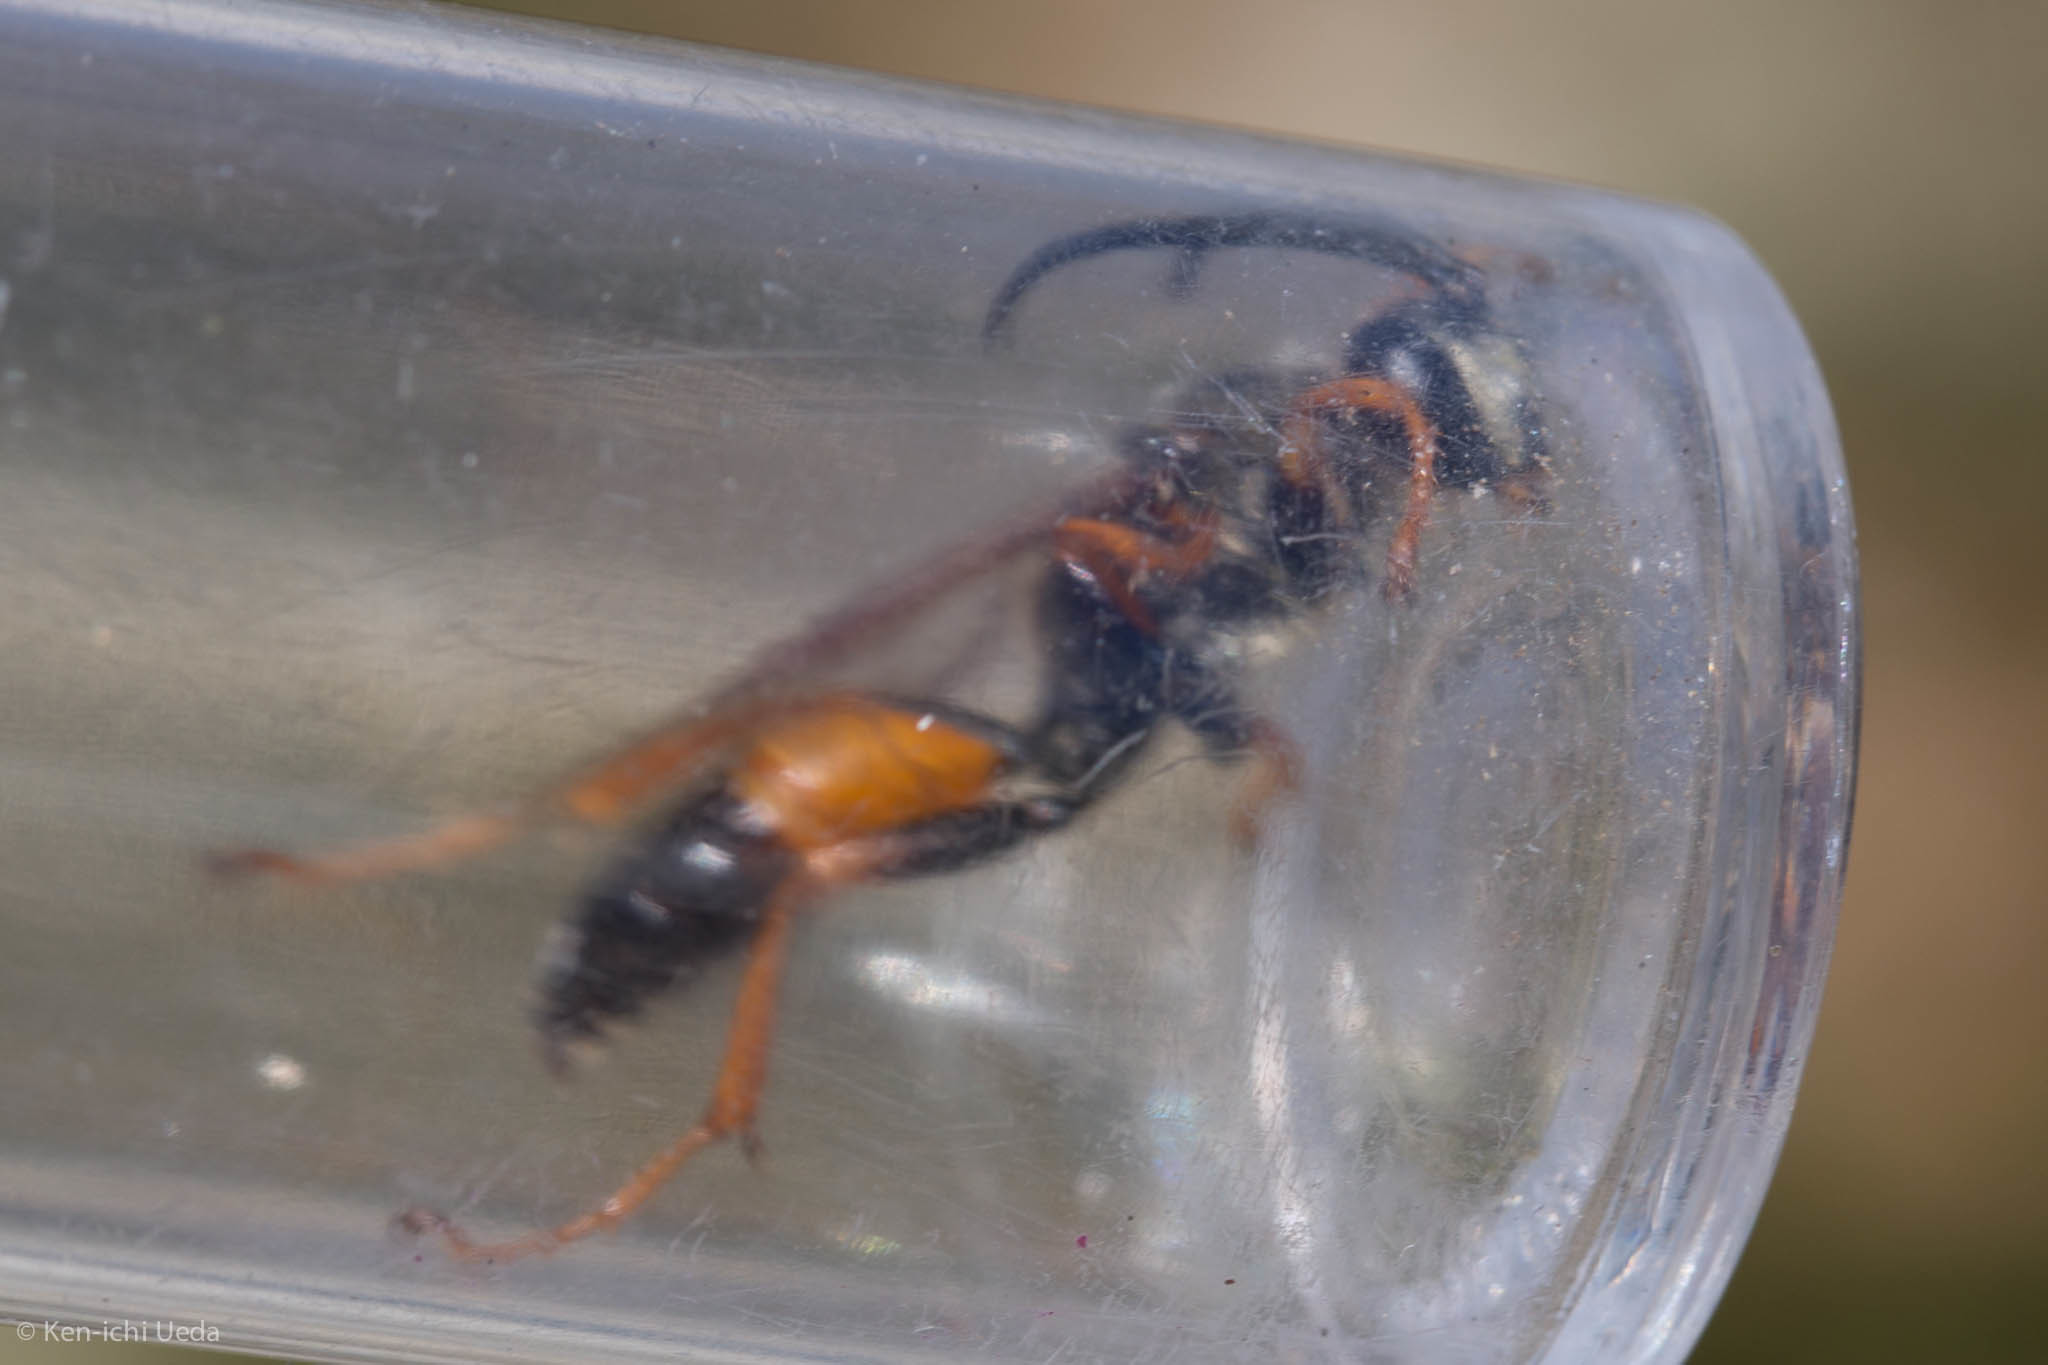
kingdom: Animalia
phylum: Arthropoda
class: Insecta
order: Hymenoptera
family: Sphecidae
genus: Sphex
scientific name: Sphex ichneumoneus
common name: Great golden digger wasp
